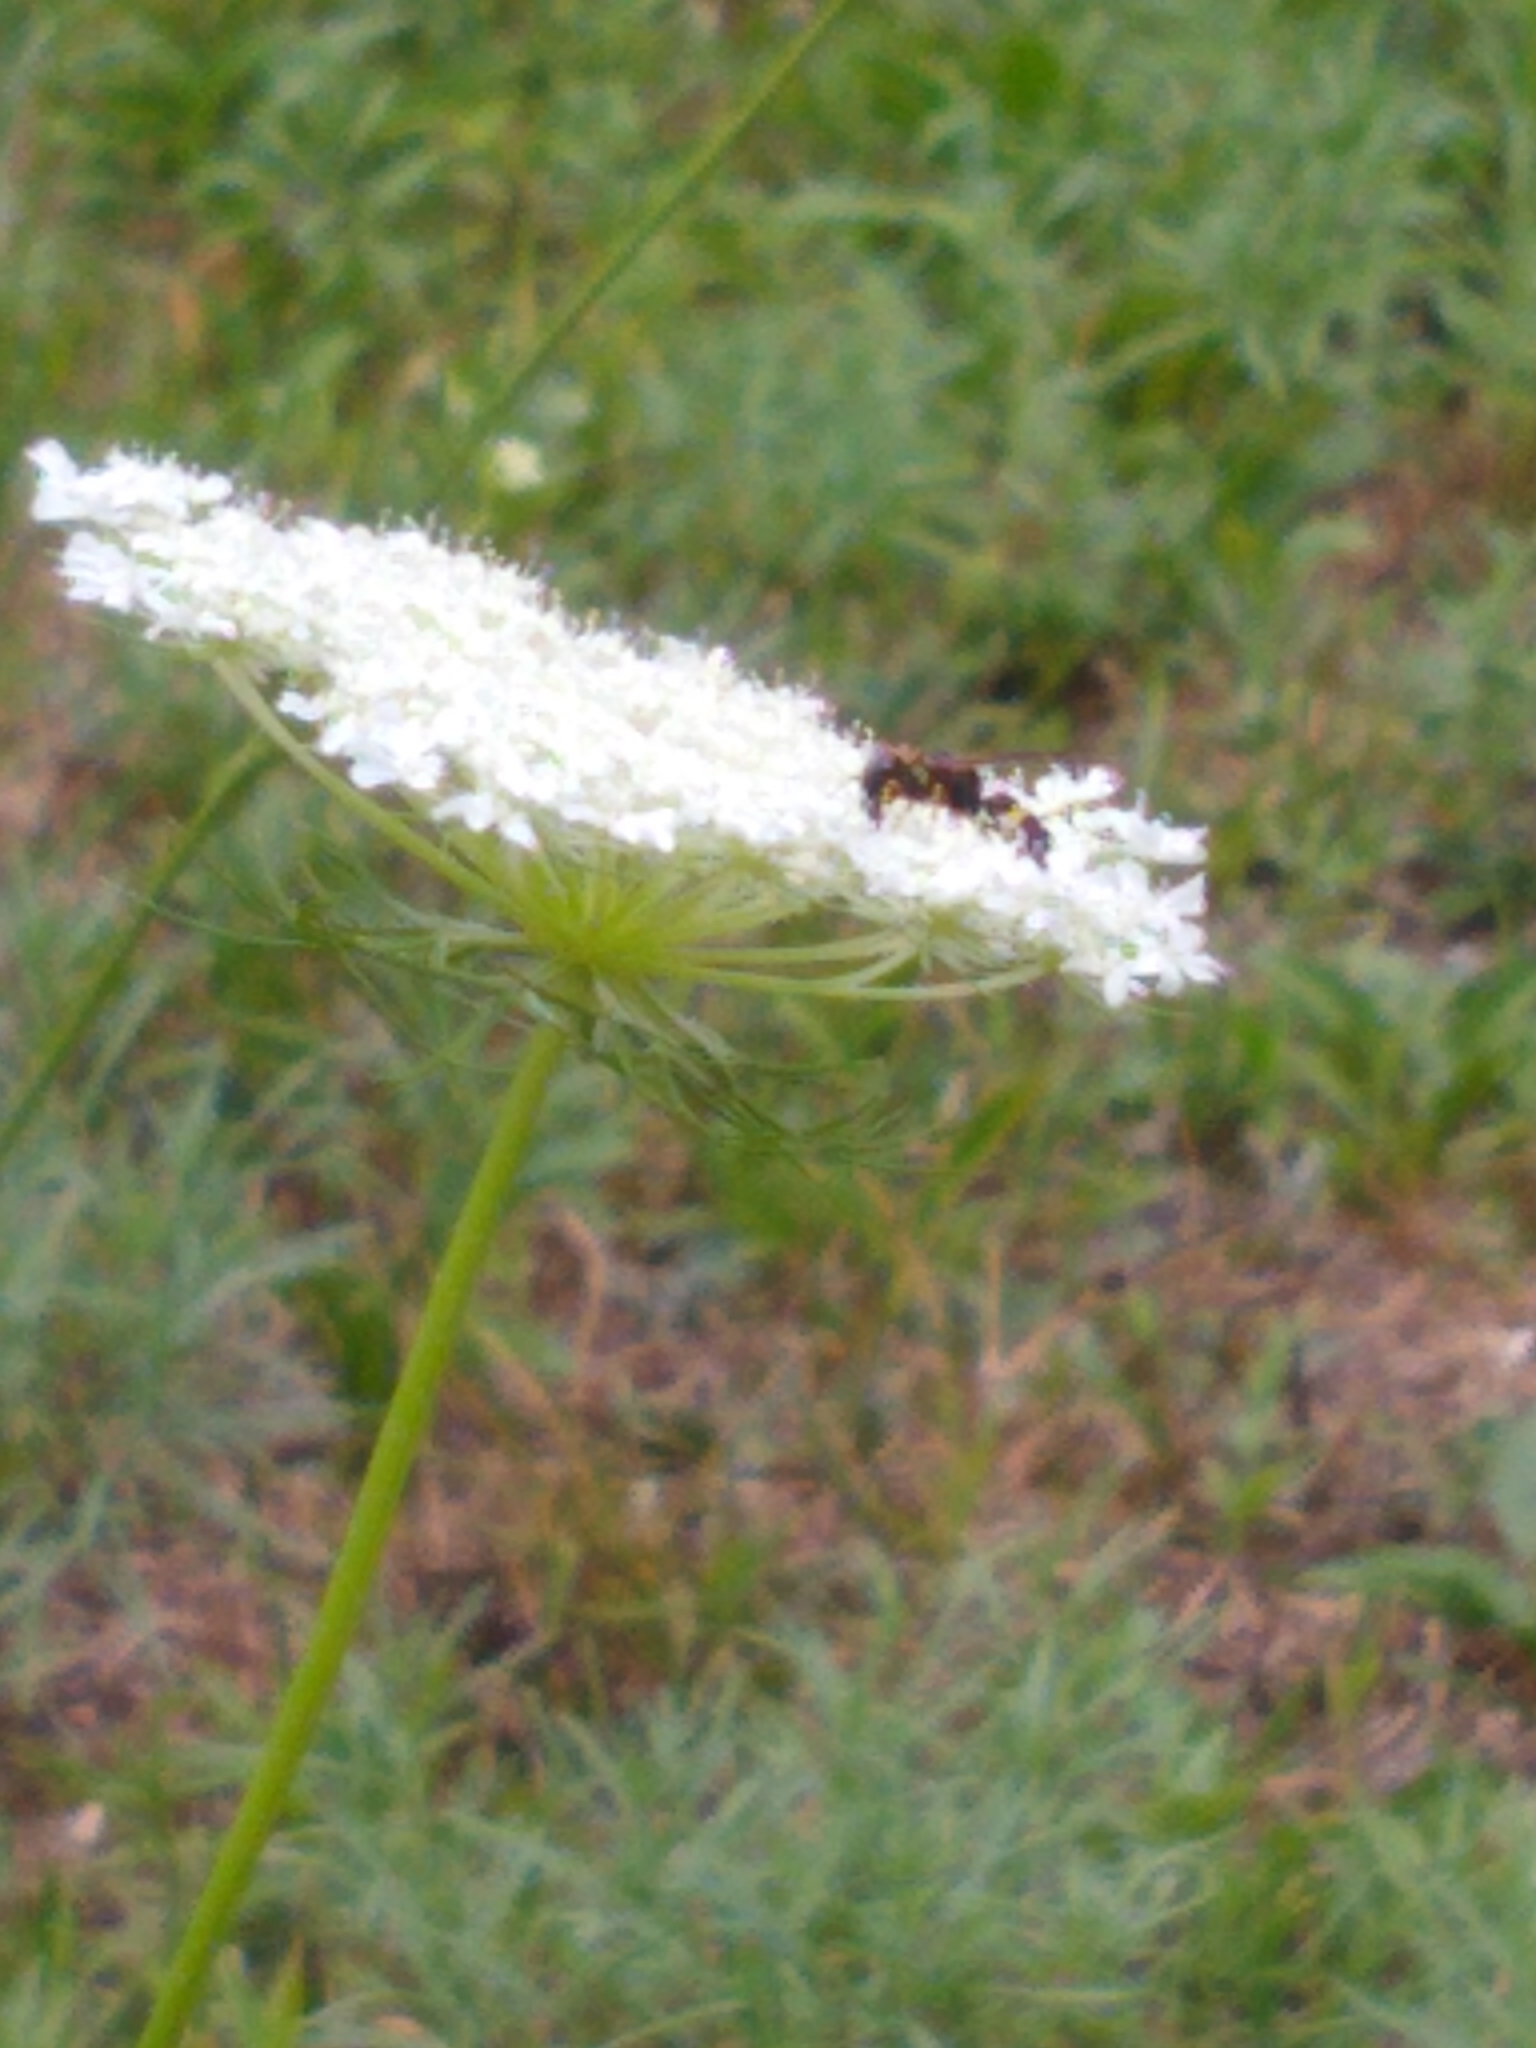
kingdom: Animalia
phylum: Arthropoda
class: Insecta
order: Hymenoptera
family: Crabronidae
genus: Philanthus
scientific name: Philanthus gibbosus
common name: Humped beewolf
